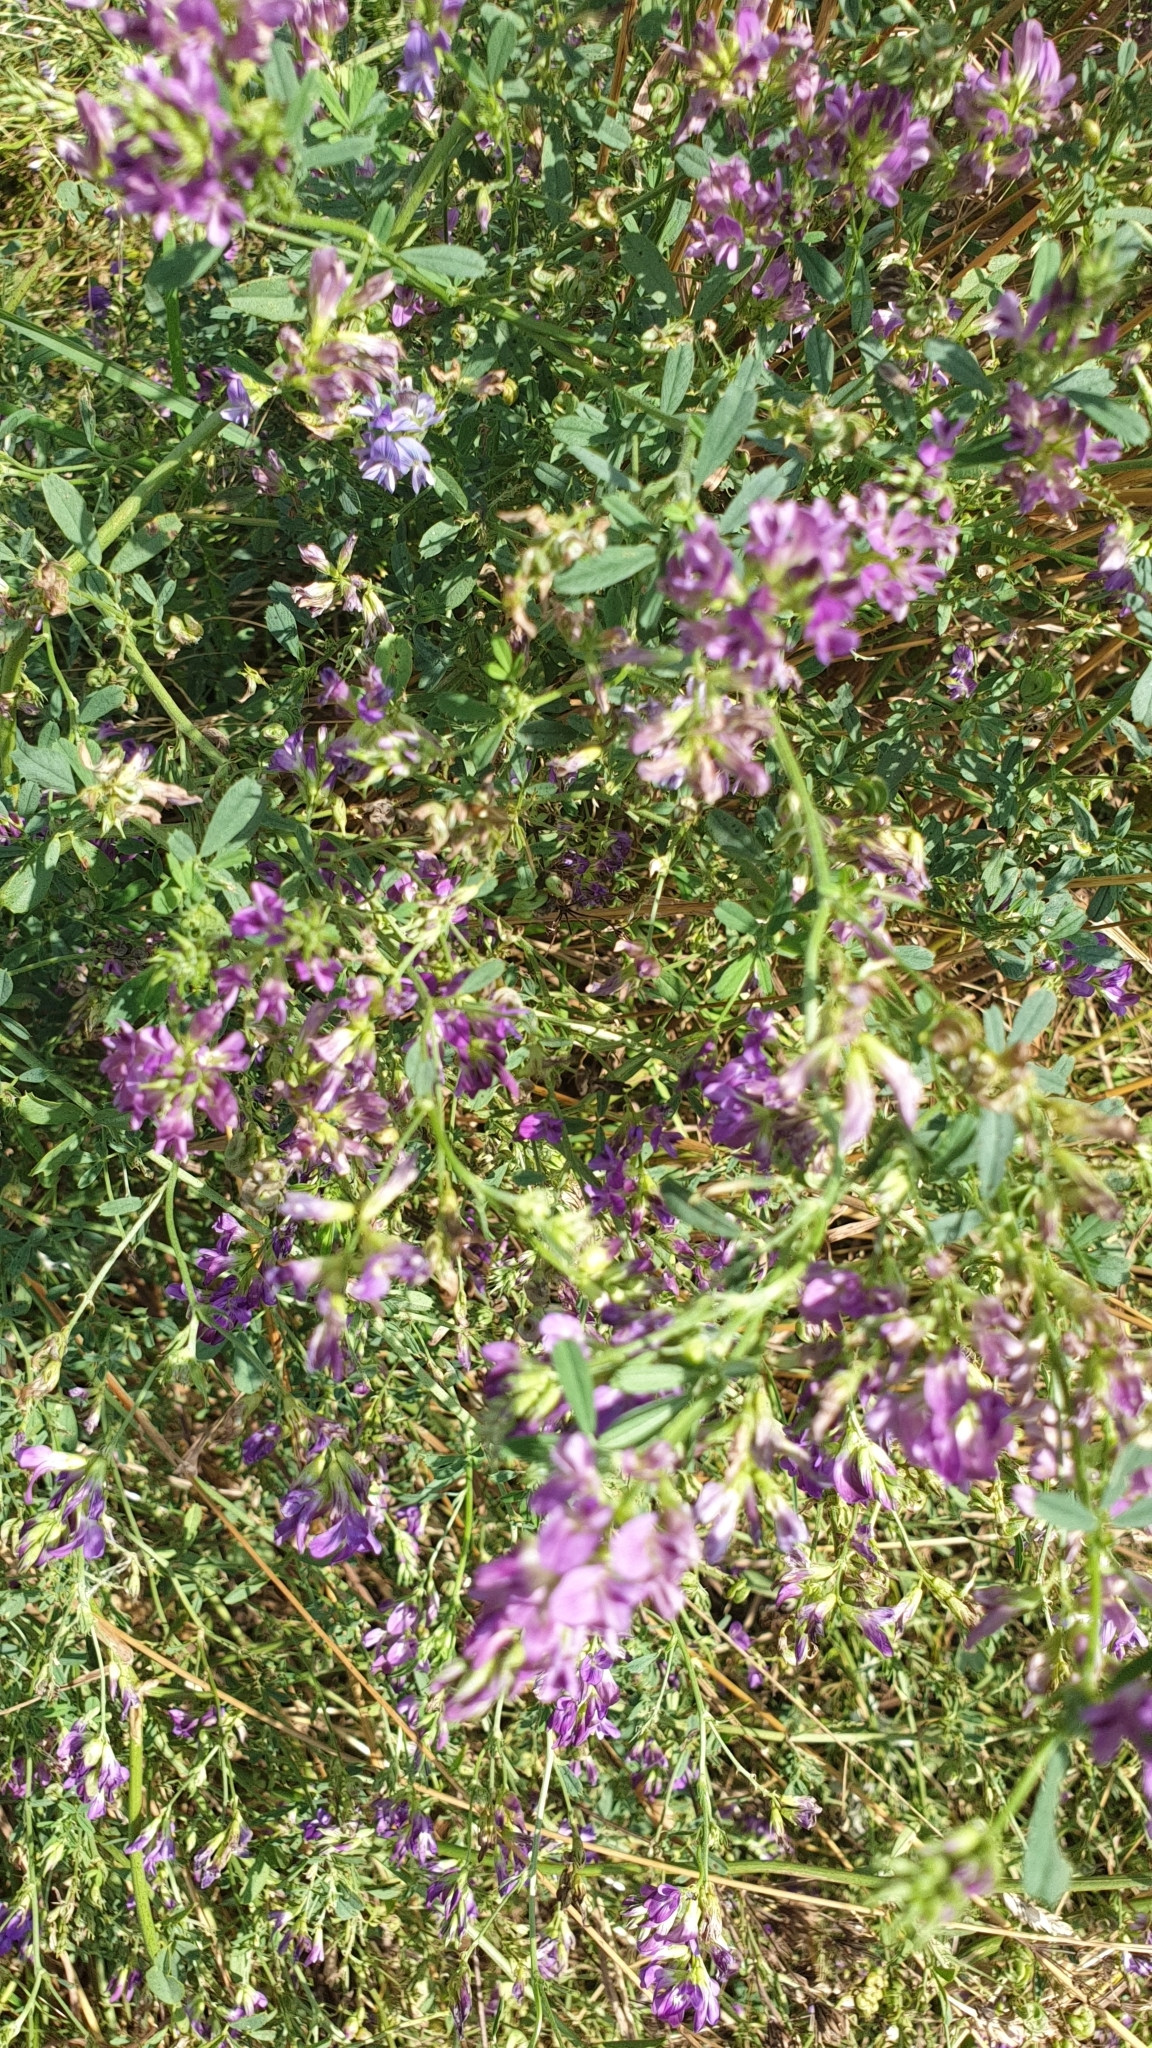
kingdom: Plantae
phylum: Tracheophyta
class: Magnoliopsida
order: Fabales
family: Fabaceae
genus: Medicago
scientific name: Medicago sativa
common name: Alfalfa
